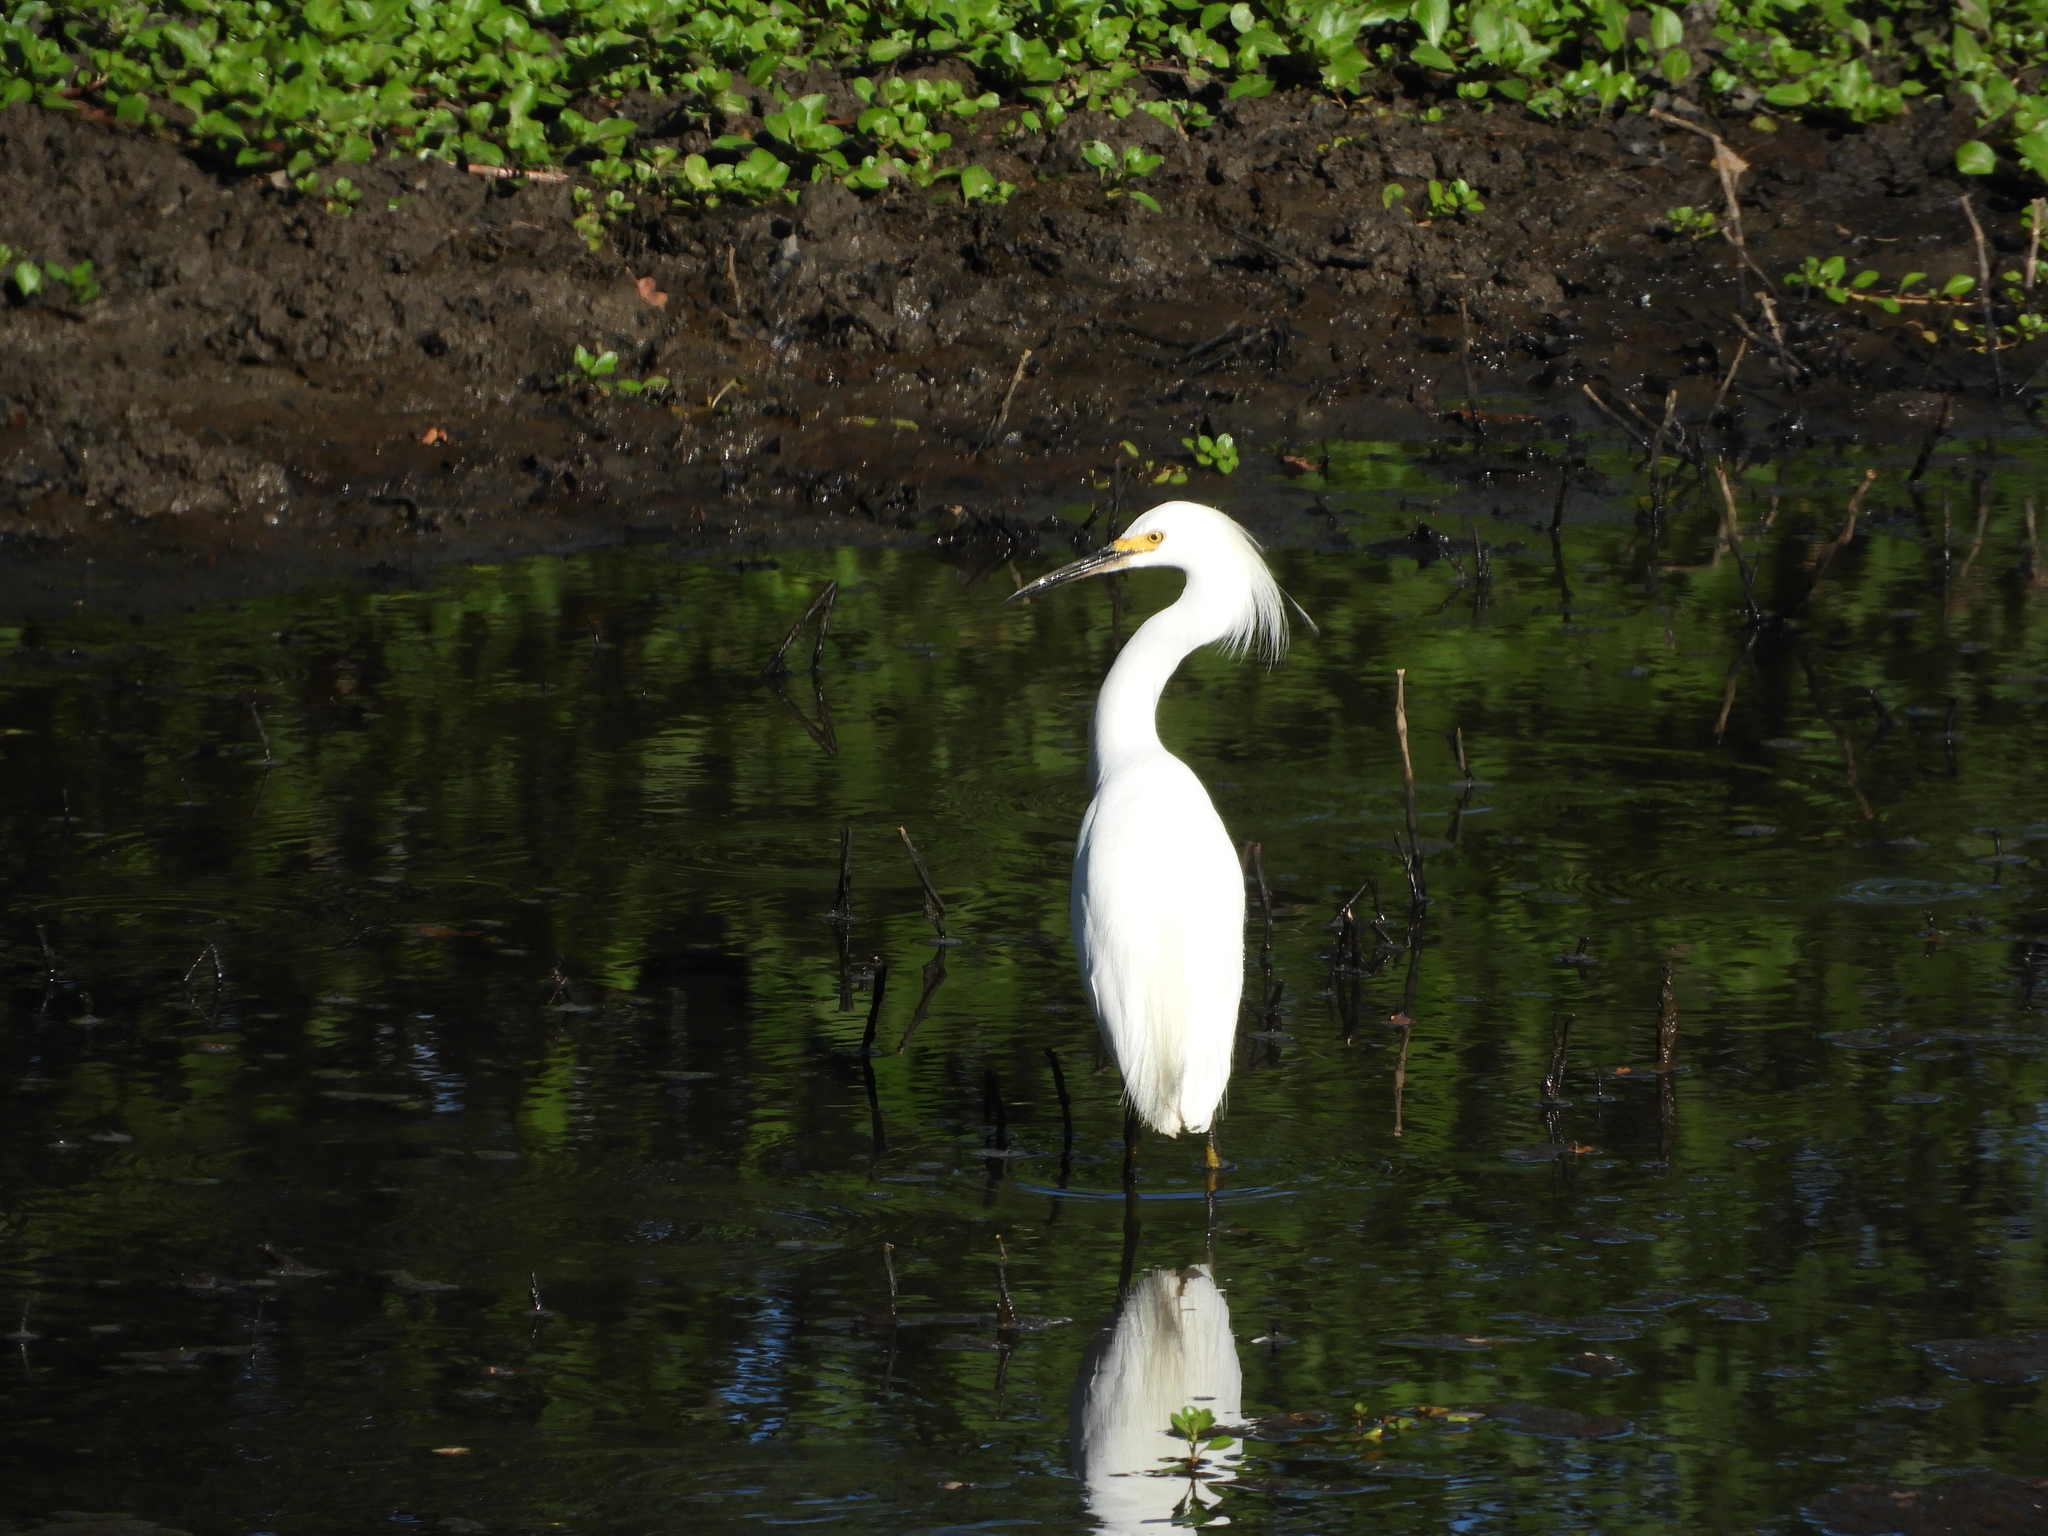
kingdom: Animalia
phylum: Chordata
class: Aves
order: Pelecaniformes
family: Ardeidae
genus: Egretta
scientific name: Egretta thula
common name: Snowy egret
